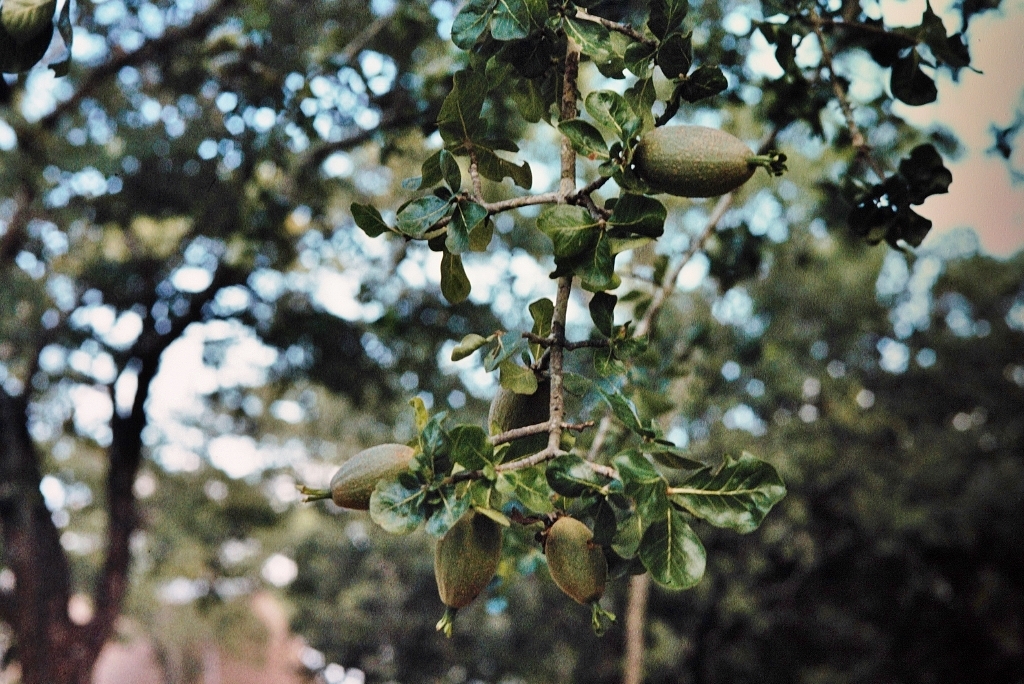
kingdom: Plantae
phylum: Tracheophyta
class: Magnoliopsida
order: Gentianales
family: Rubiaceae
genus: Gardenia
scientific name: Gardenia volkensii
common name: Common gardenia
